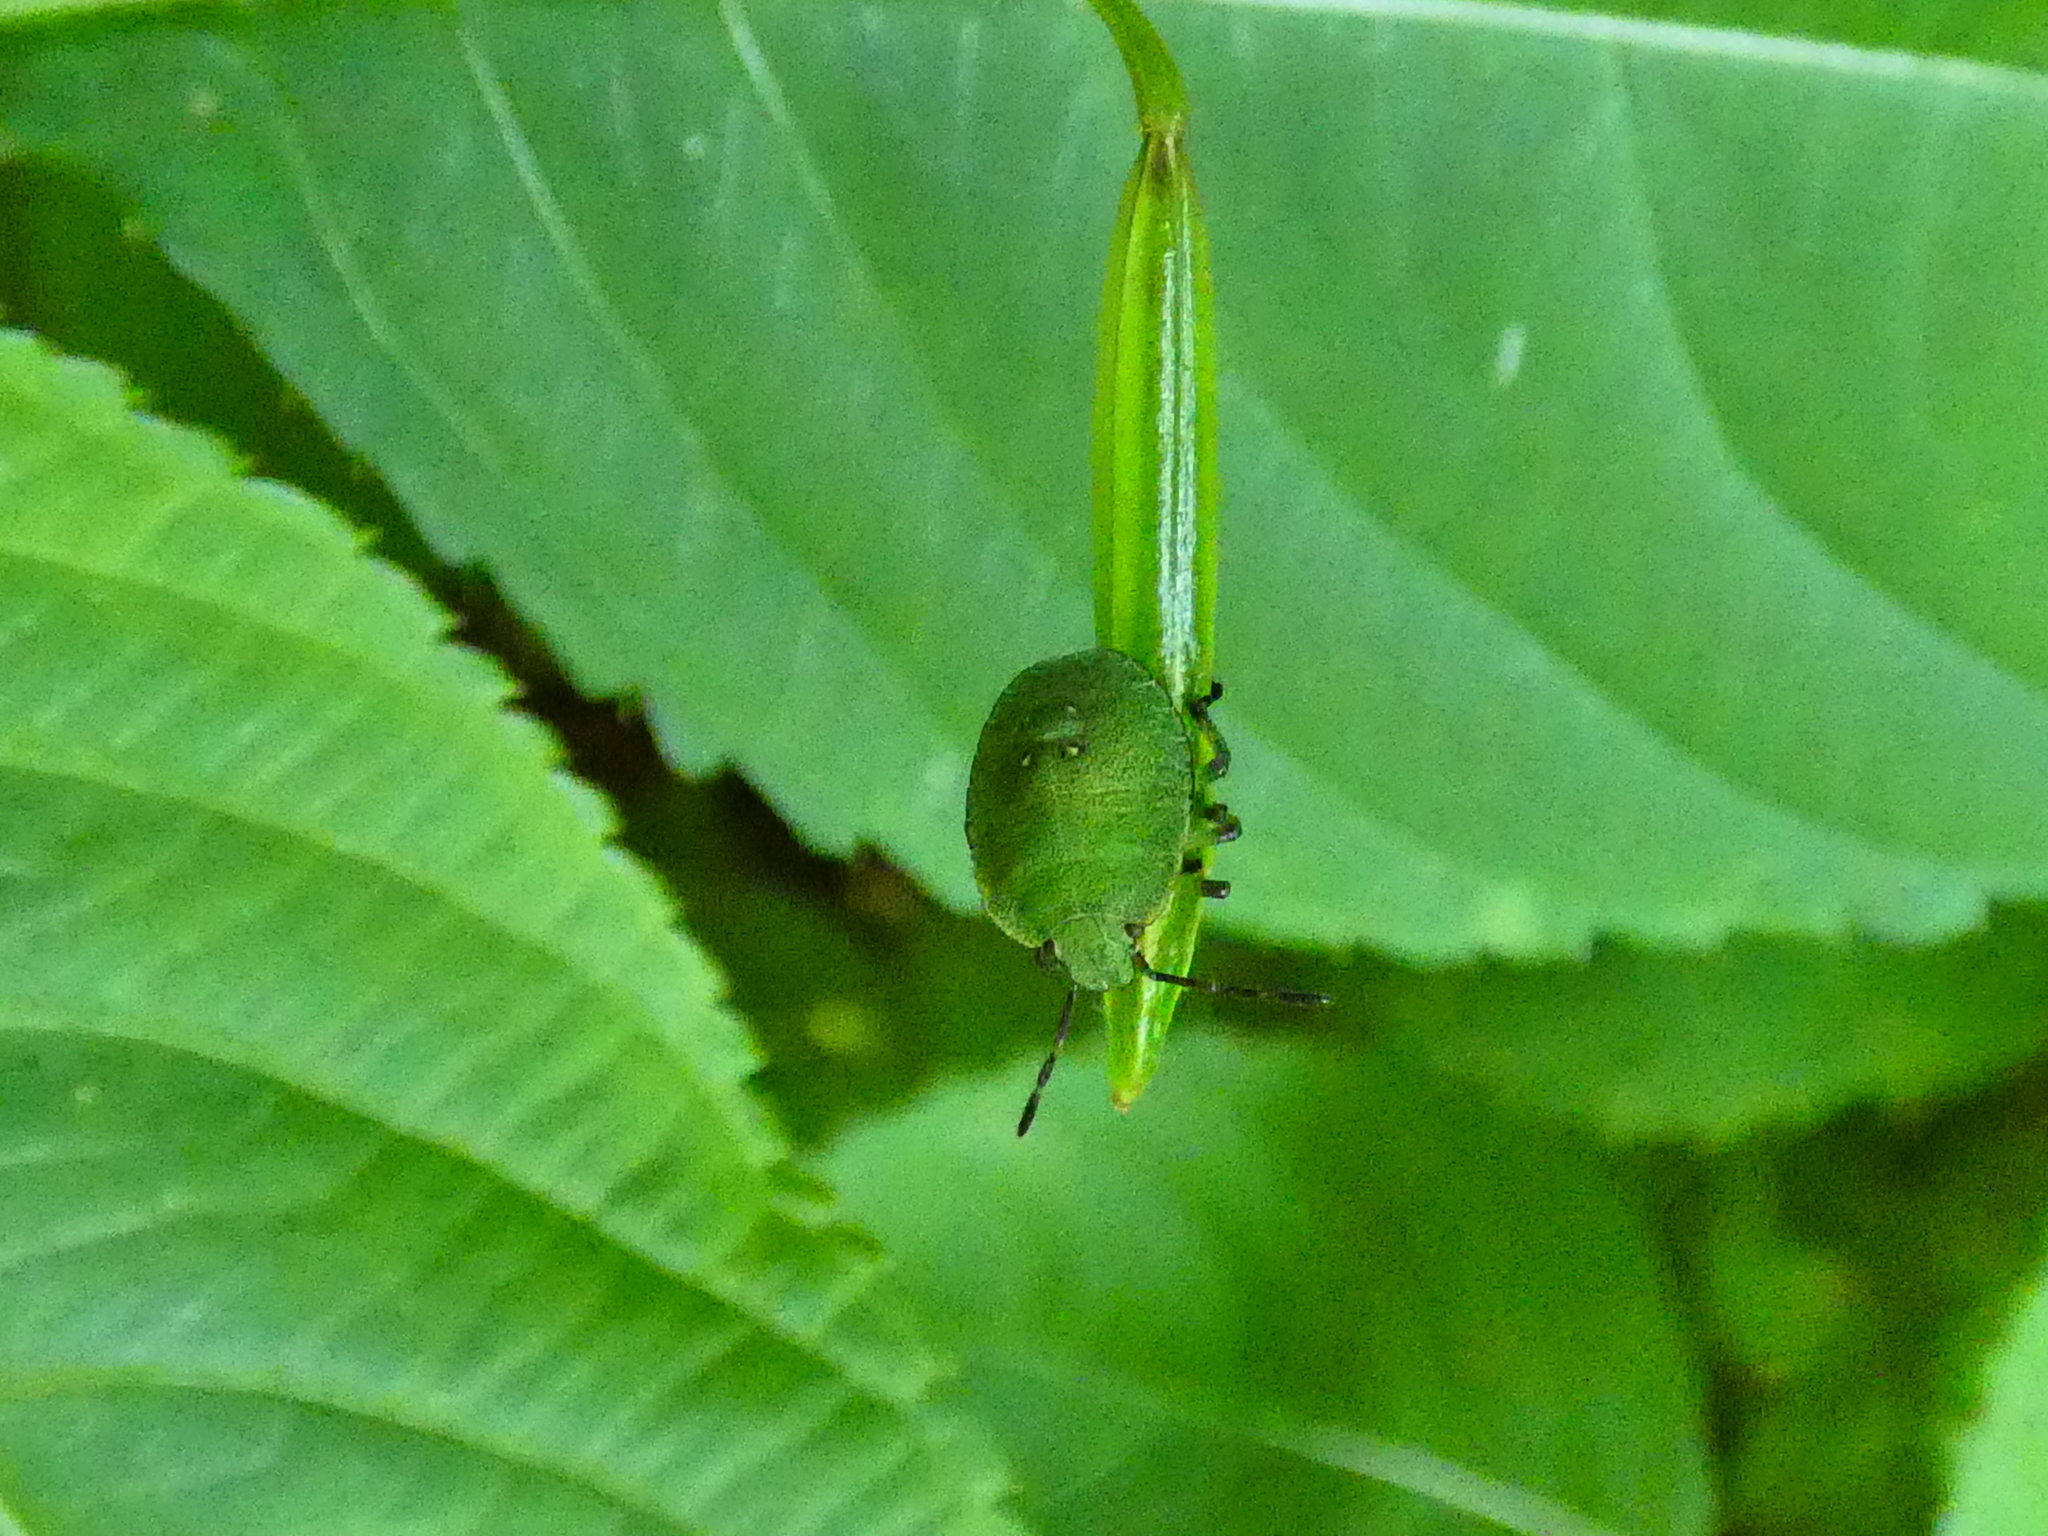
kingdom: Animalia
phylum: Arthropoda
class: Insecta
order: Hemiptera
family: Pentatomidae
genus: Palomena
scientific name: Palomena prasina
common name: Green shieldbug
